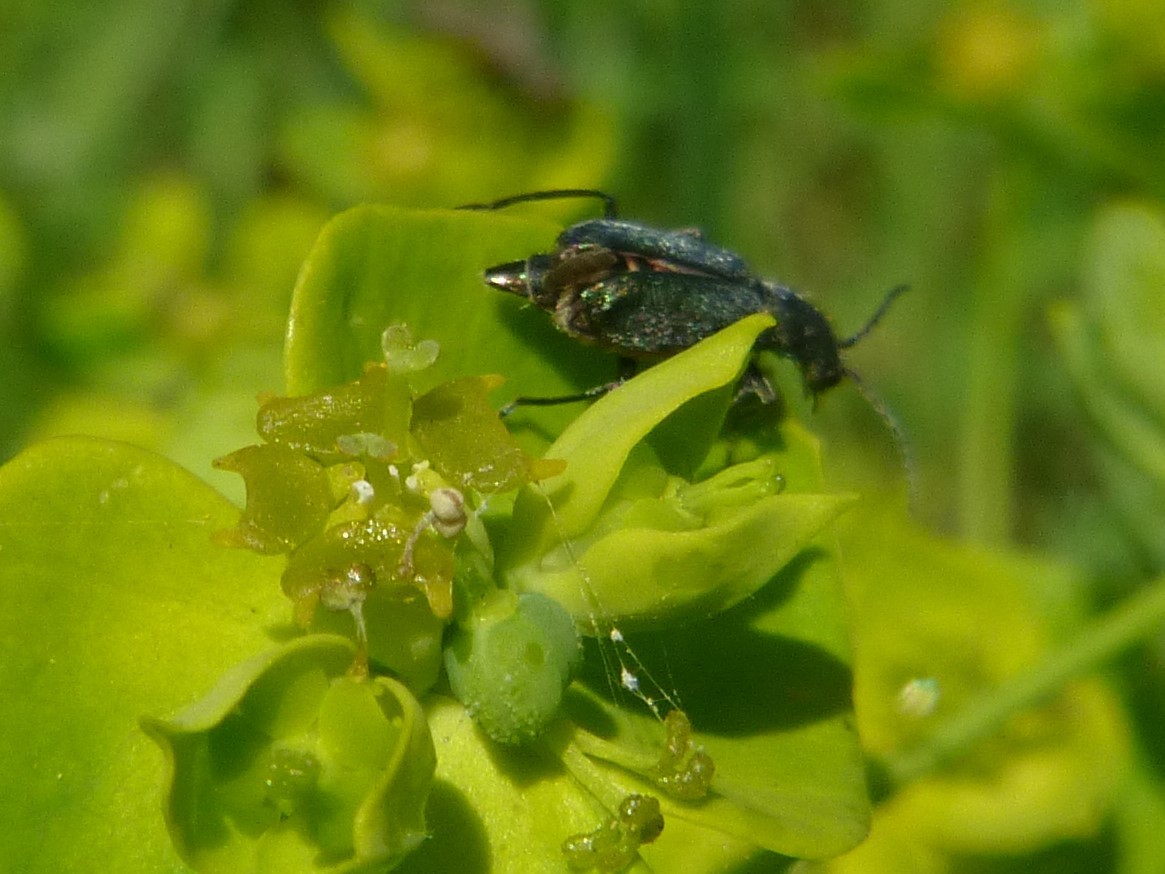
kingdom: Animalia
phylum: Arthropoda
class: Insecta
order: Coleoptera
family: Malachiidae
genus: Cordylepherus
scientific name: Cordylepherus viridis
